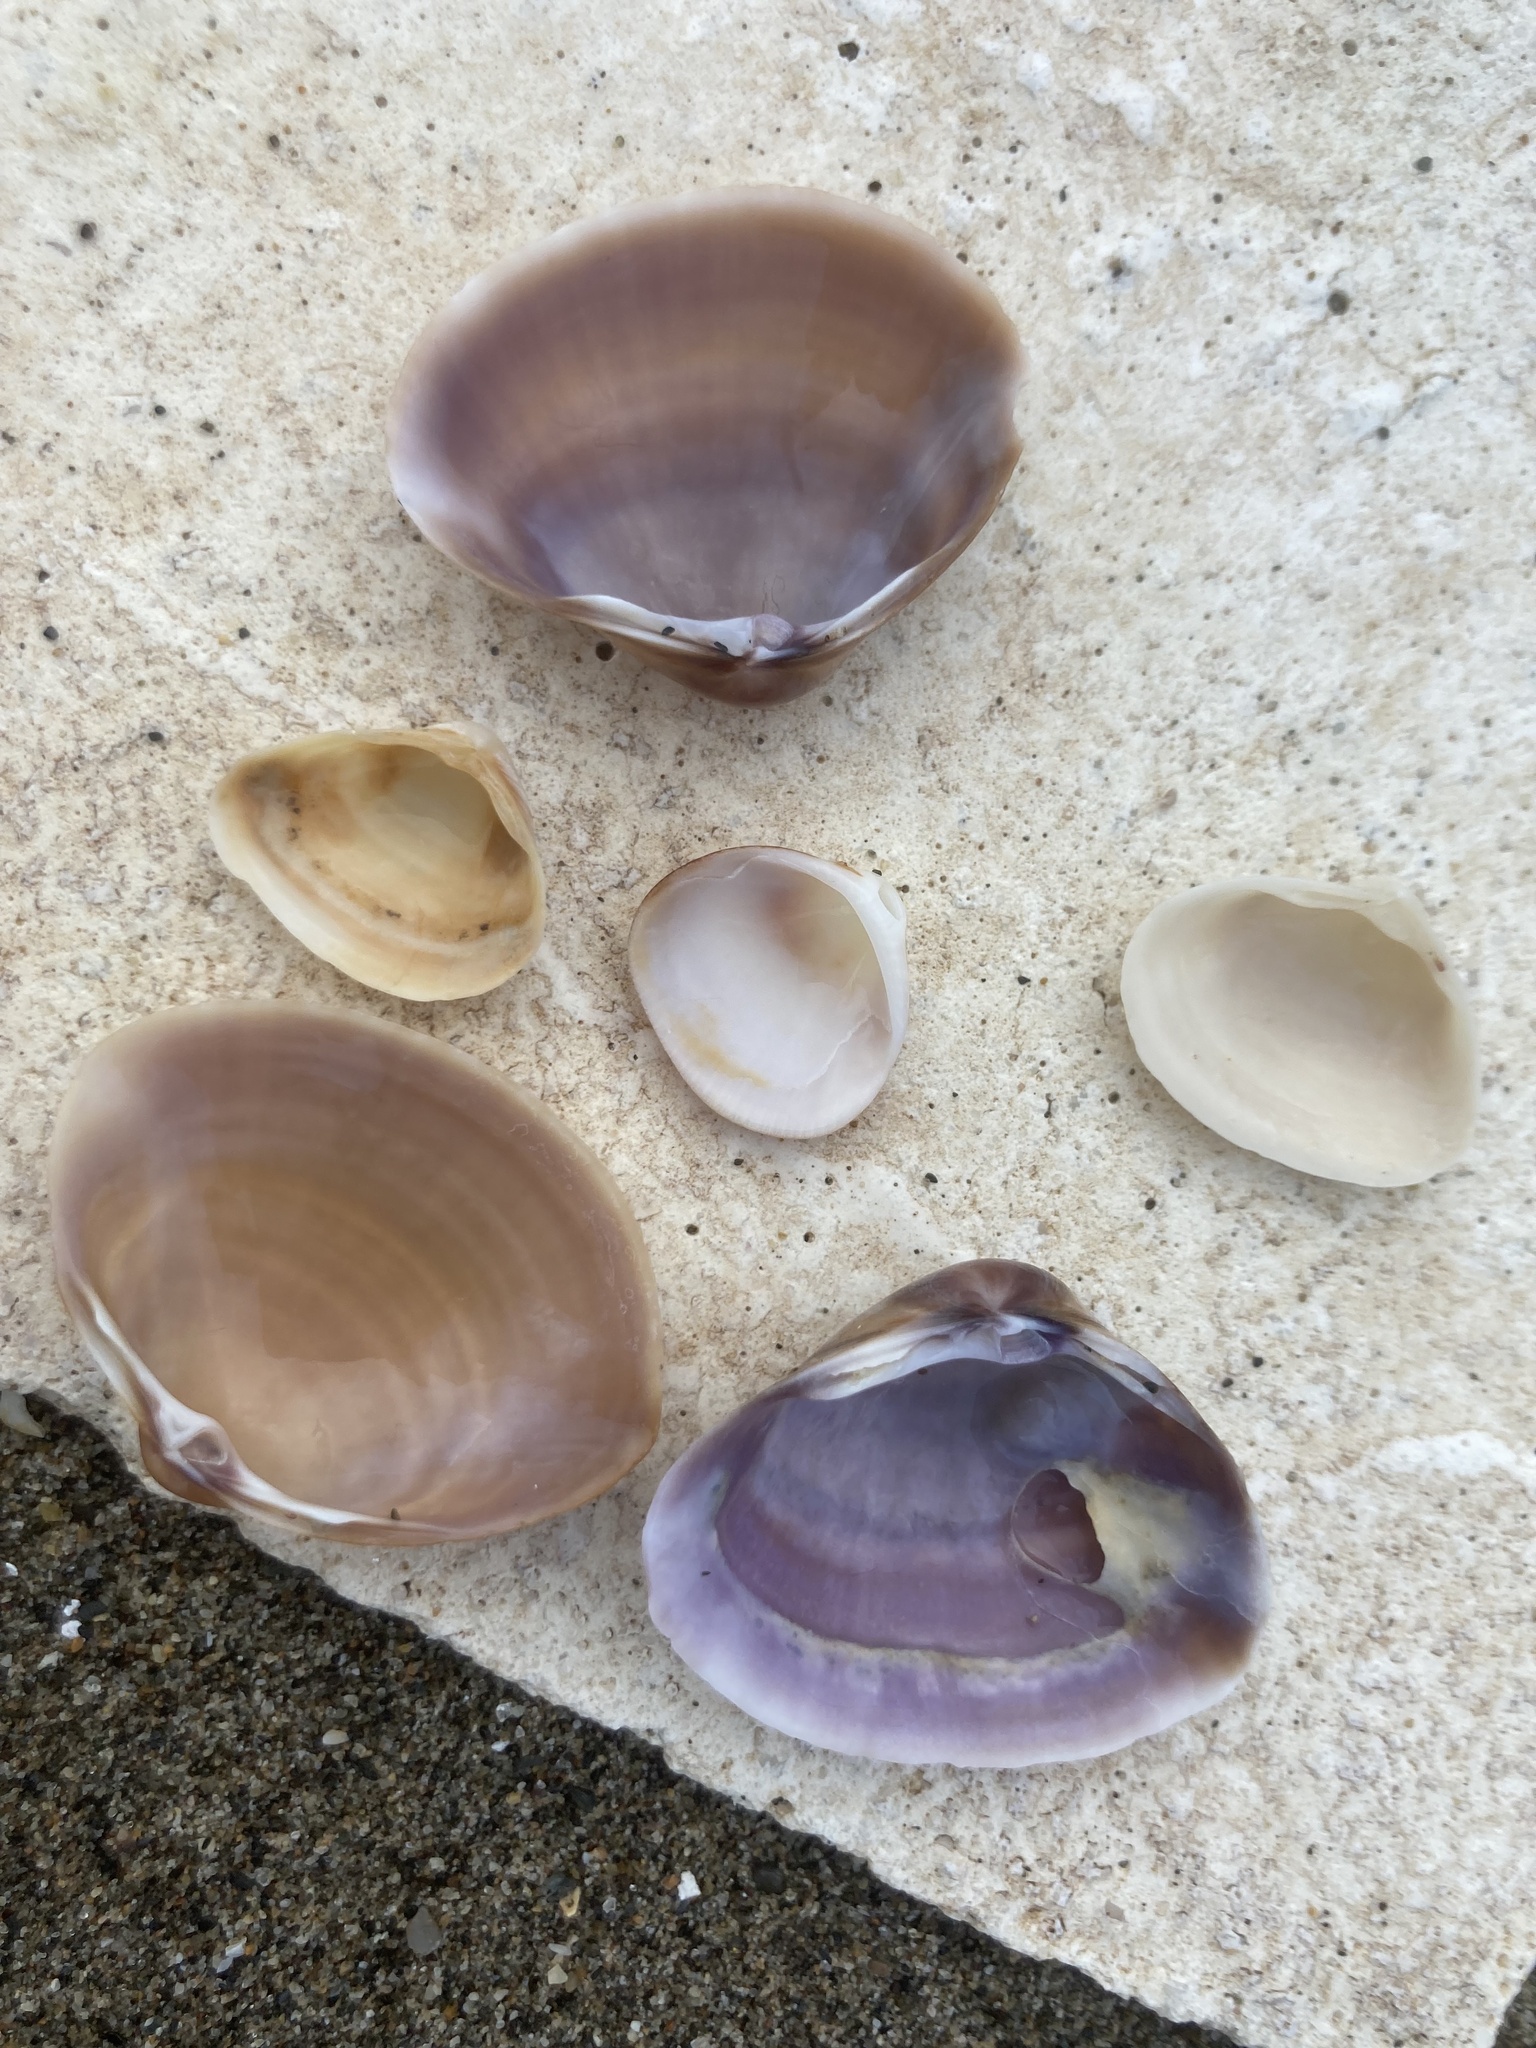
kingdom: Animalia
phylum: Mollusca
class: Bivalvia
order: Venerida
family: Mactridae
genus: Mactra
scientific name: Mactra stultorum
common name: Rayed trough shell
